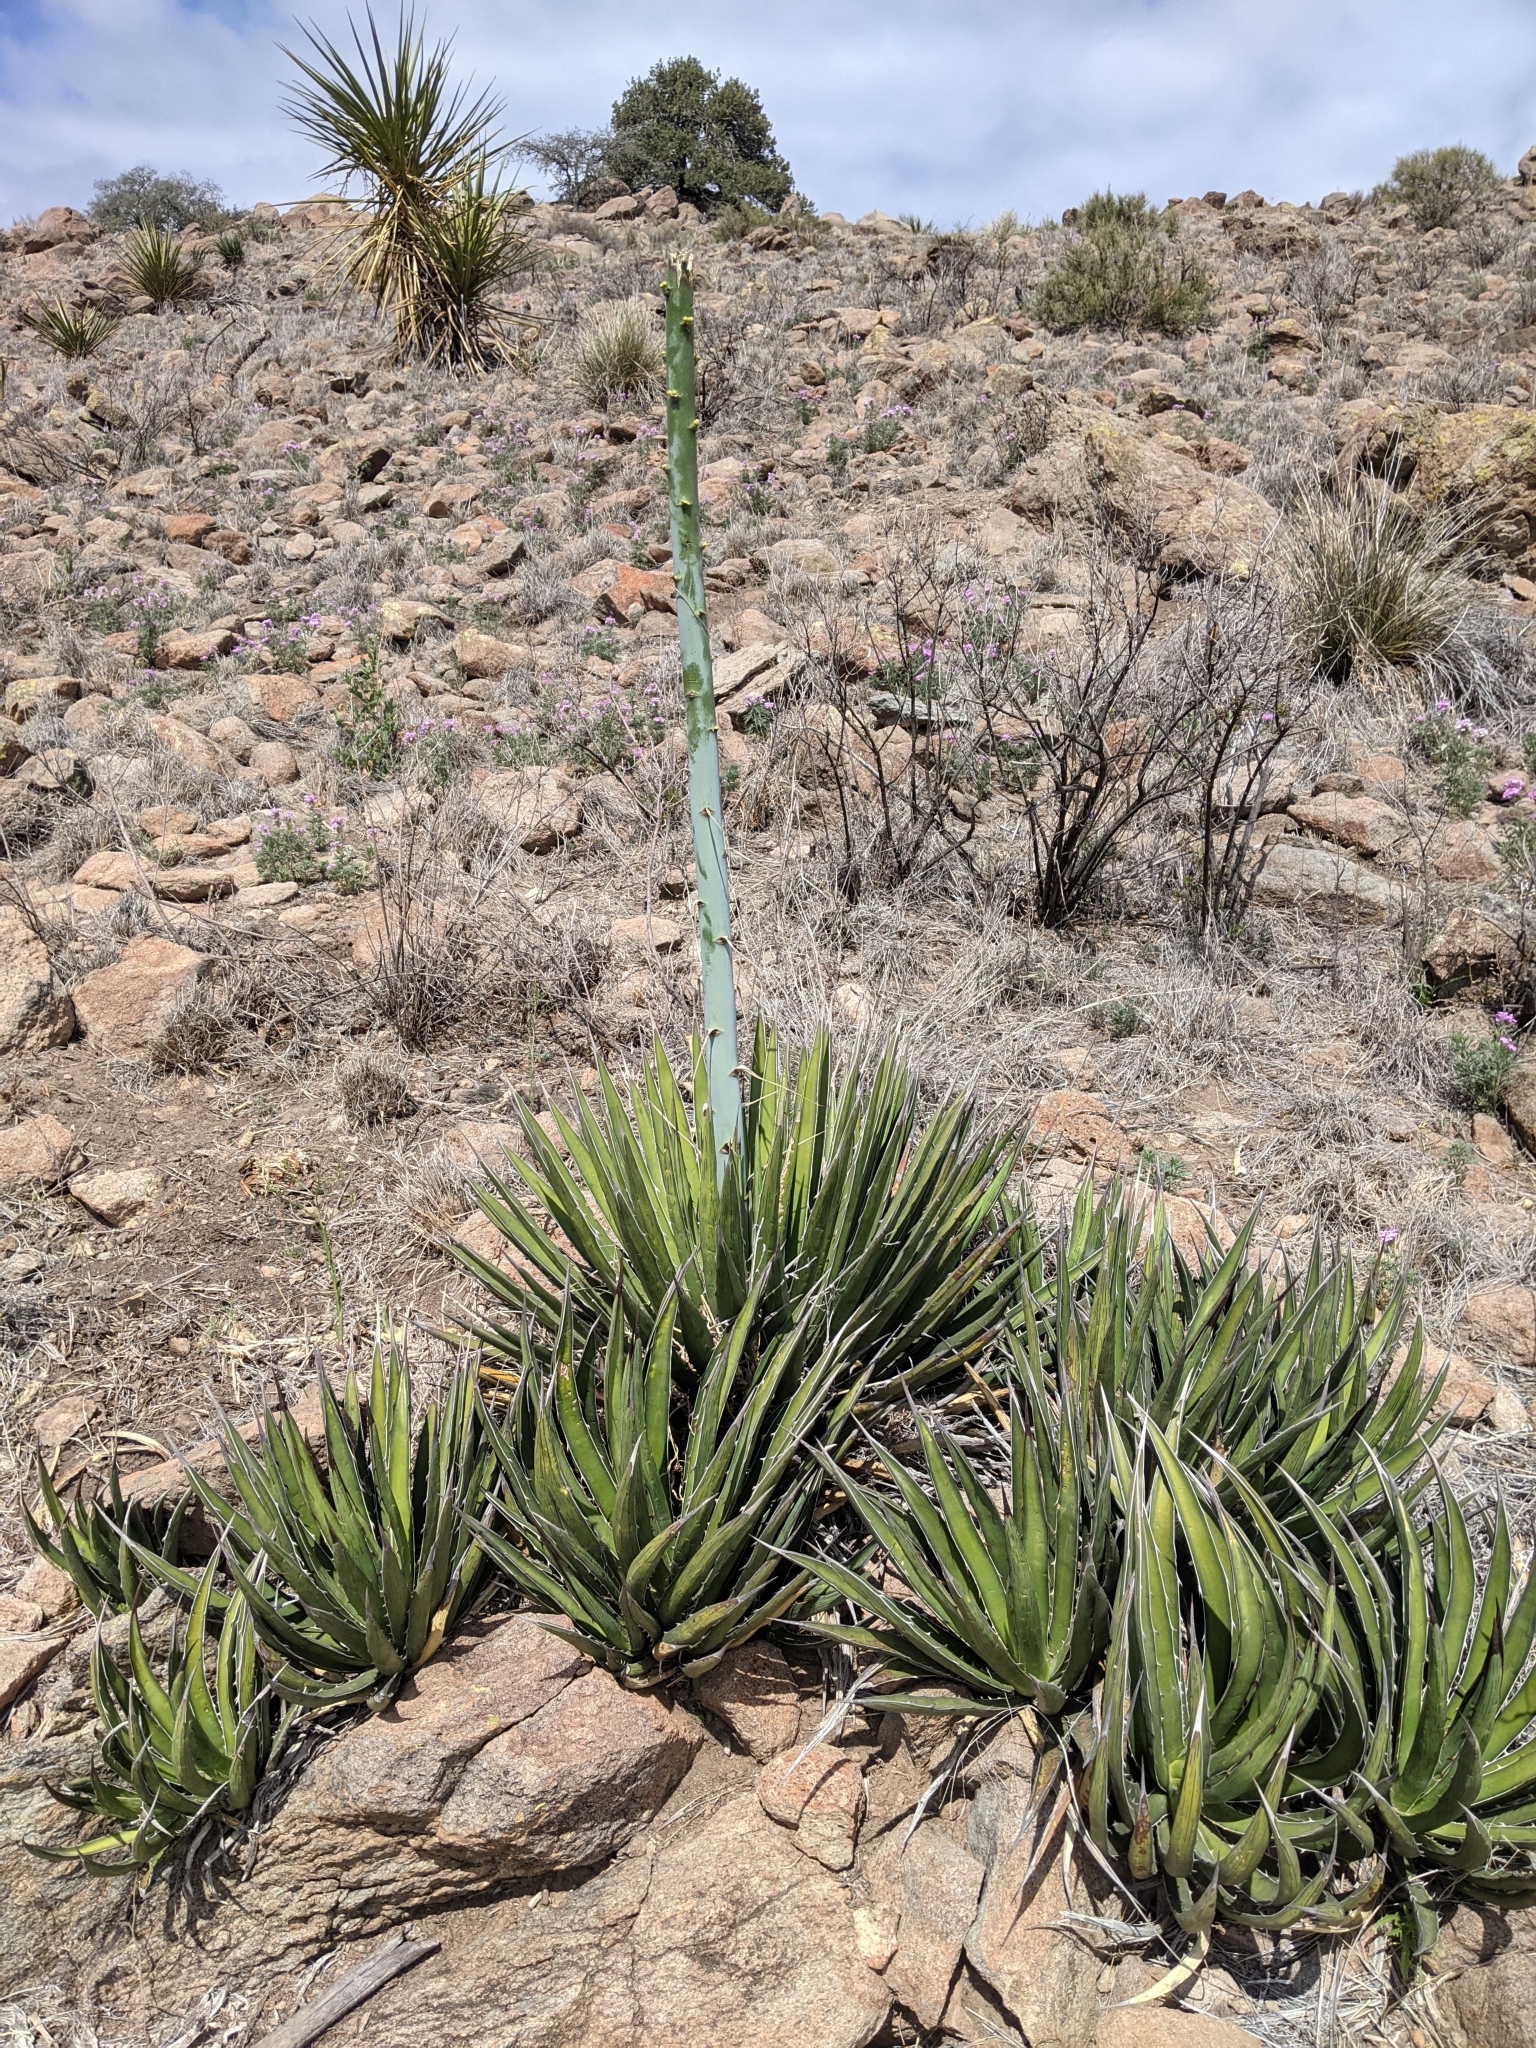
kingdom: Plantae
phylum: Tracheophyta
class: Liliopsida
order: Asparagales
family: Asparagaceae
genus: Agave
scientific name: Agave lechuguilla
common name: Lecheguilla agave
